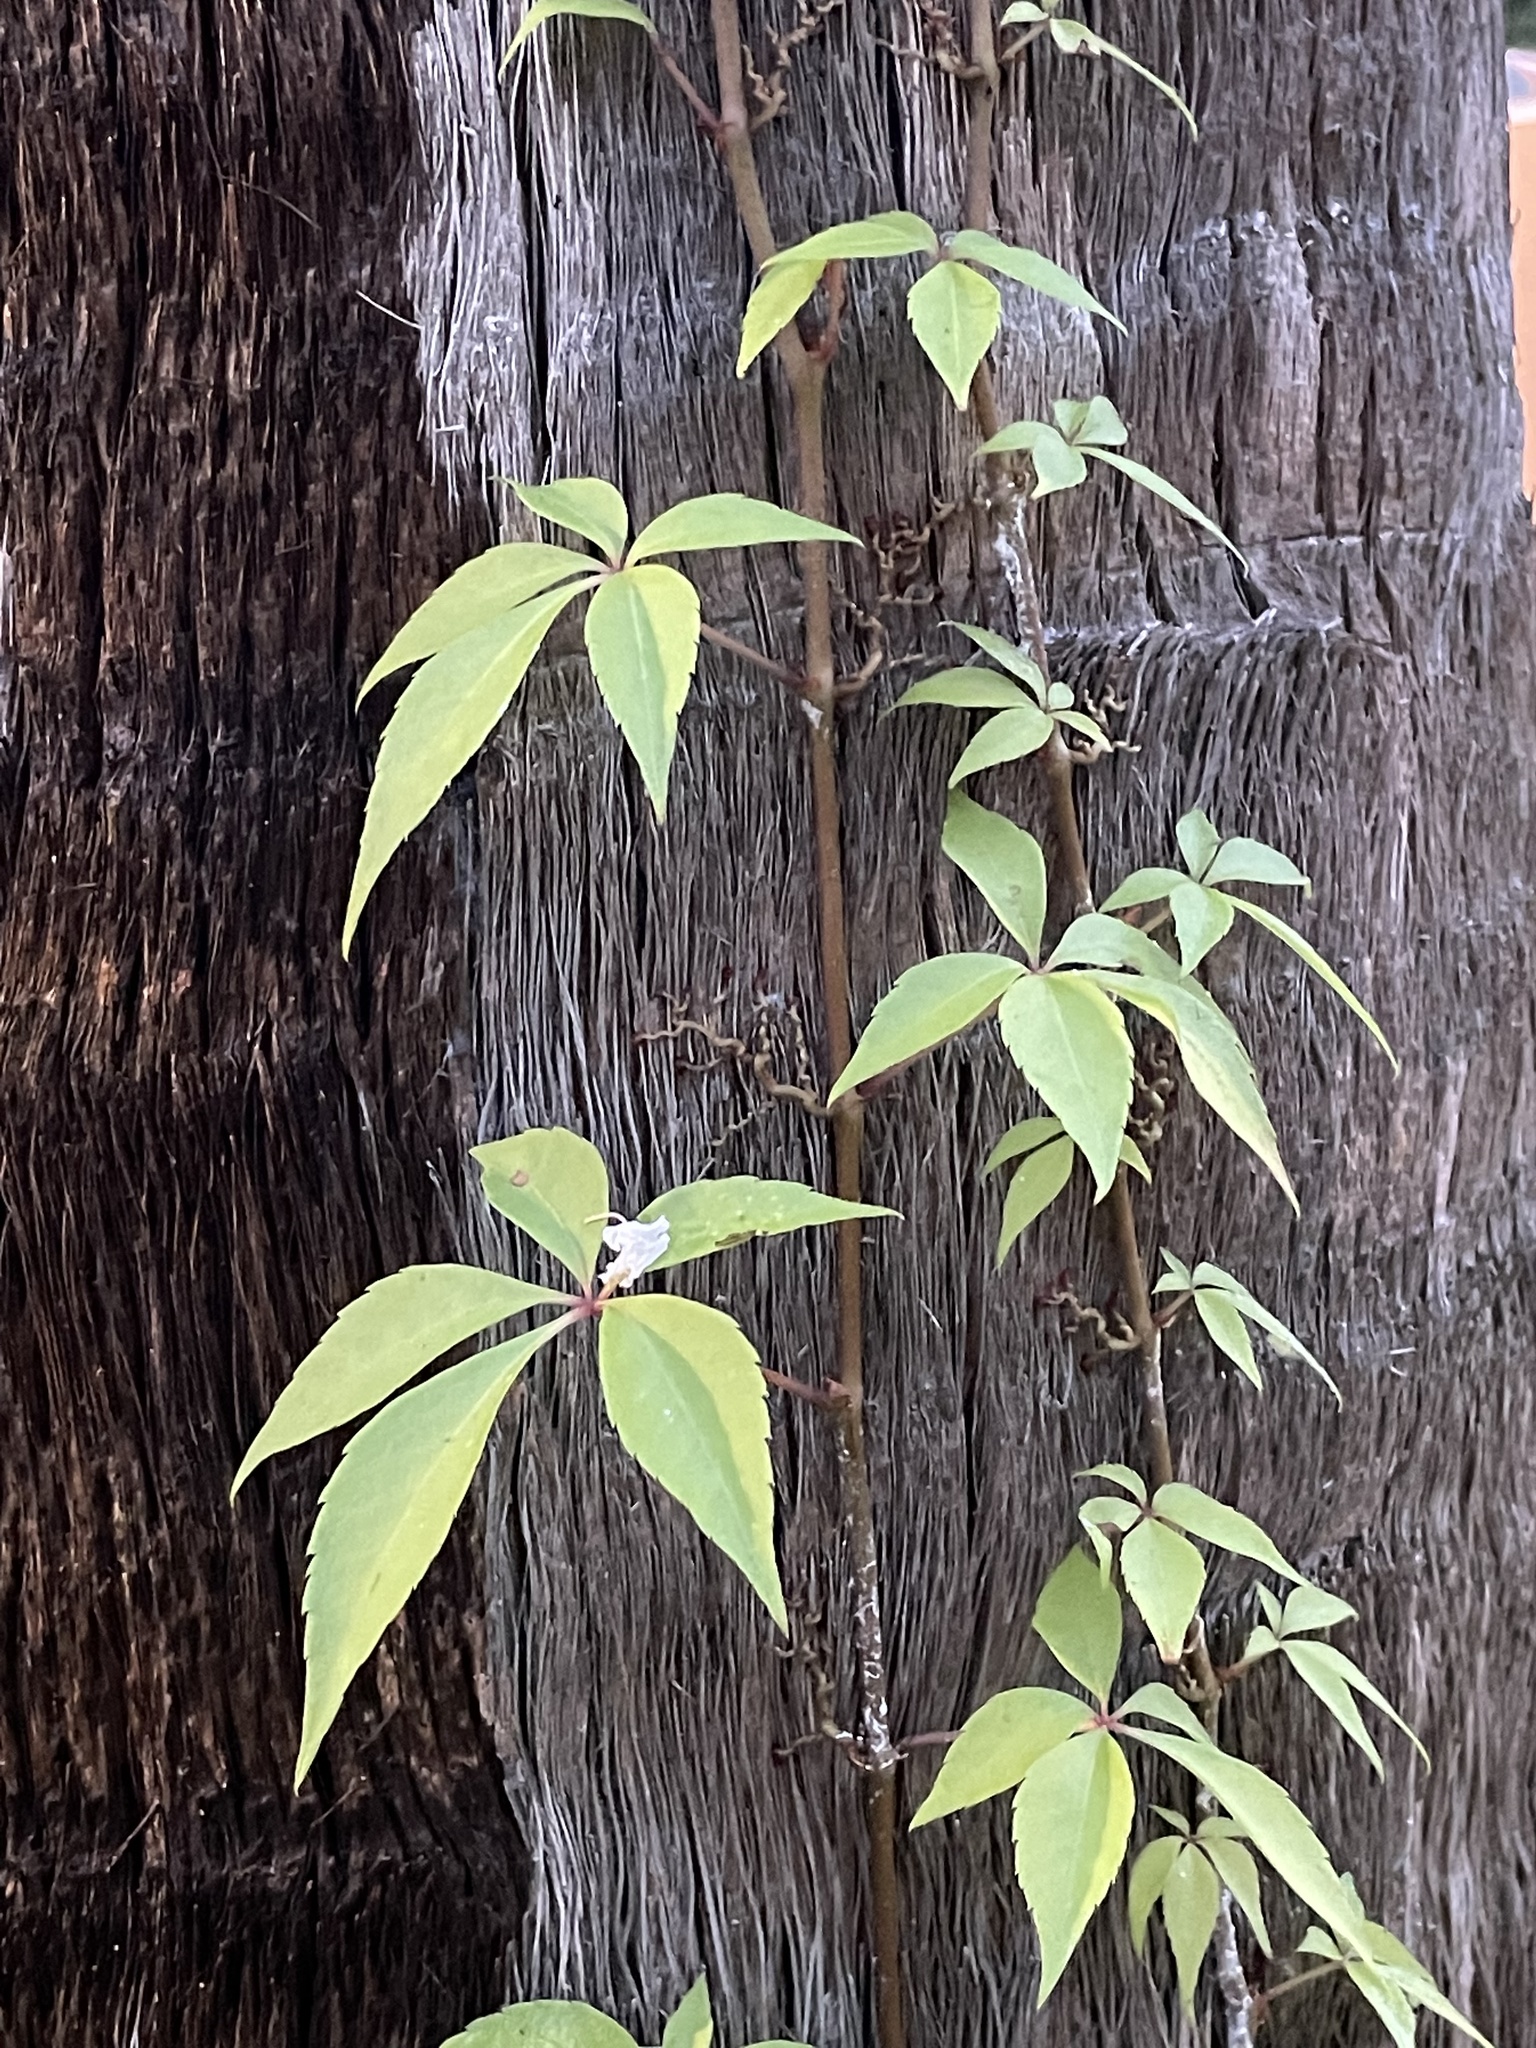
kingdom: Plantae
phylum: Tracheophyta
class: Magnoliopsida
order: Vitales
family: Vitaceae
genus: Parthenocissus
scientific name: Parthenocissus quinquefolia
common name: Virginia-creeper
